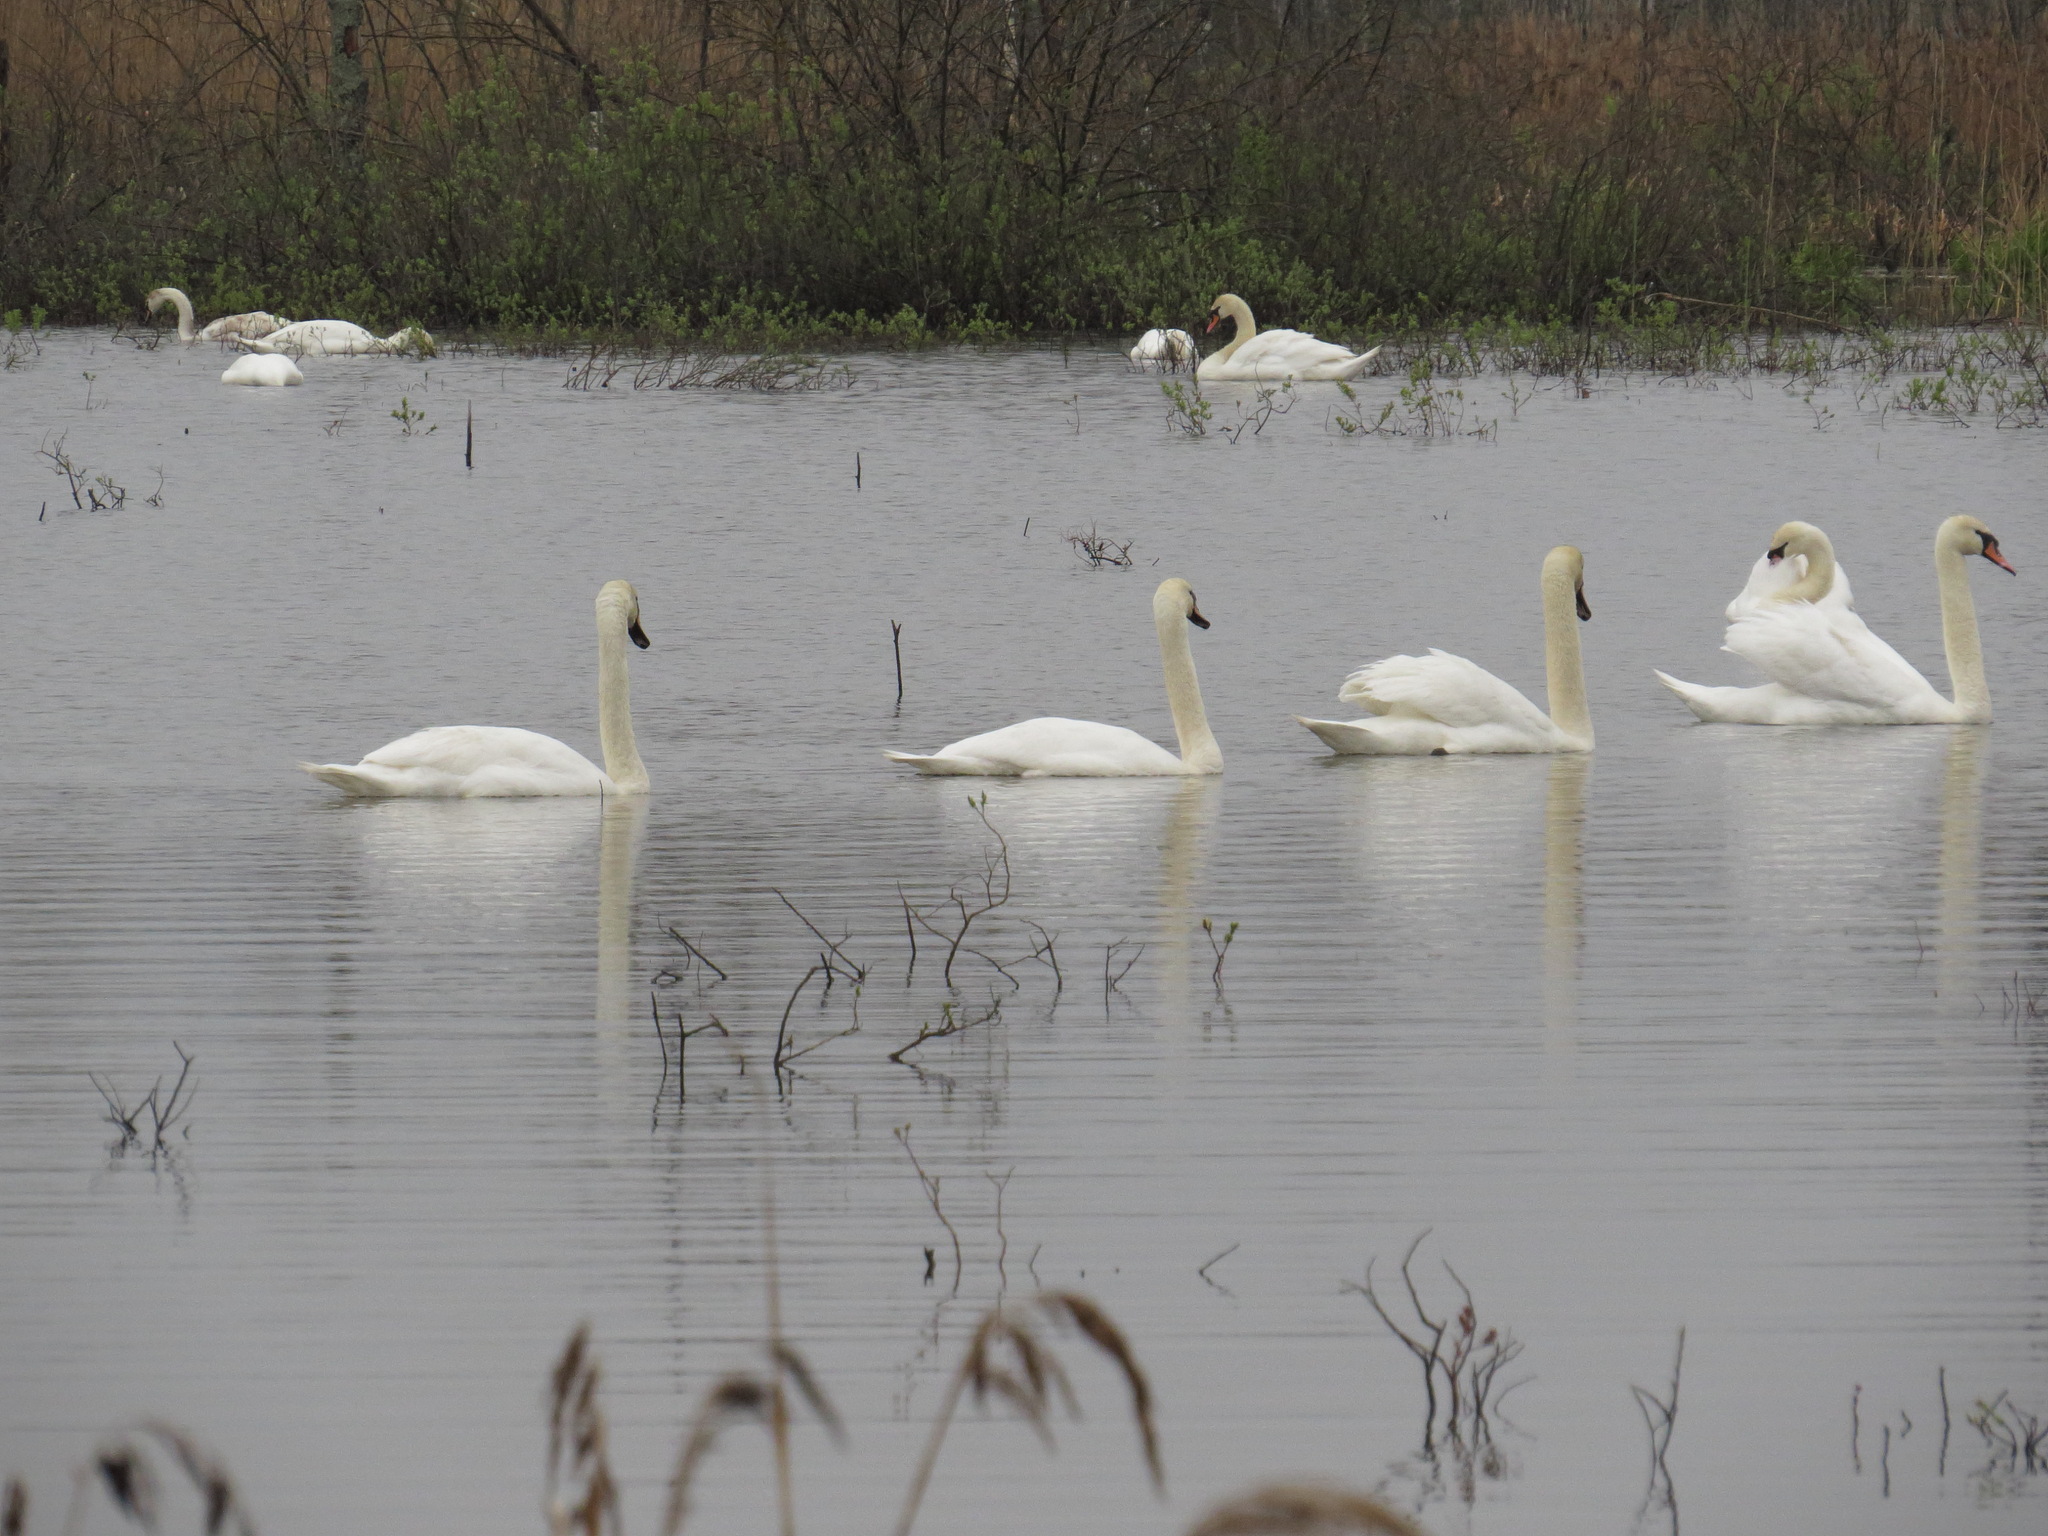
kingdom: Animalia
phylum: Chordata
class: Aves
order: Anseriformes
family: Anatidae
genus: Cygnus
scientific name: Cygnus olor
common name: Mute swan
